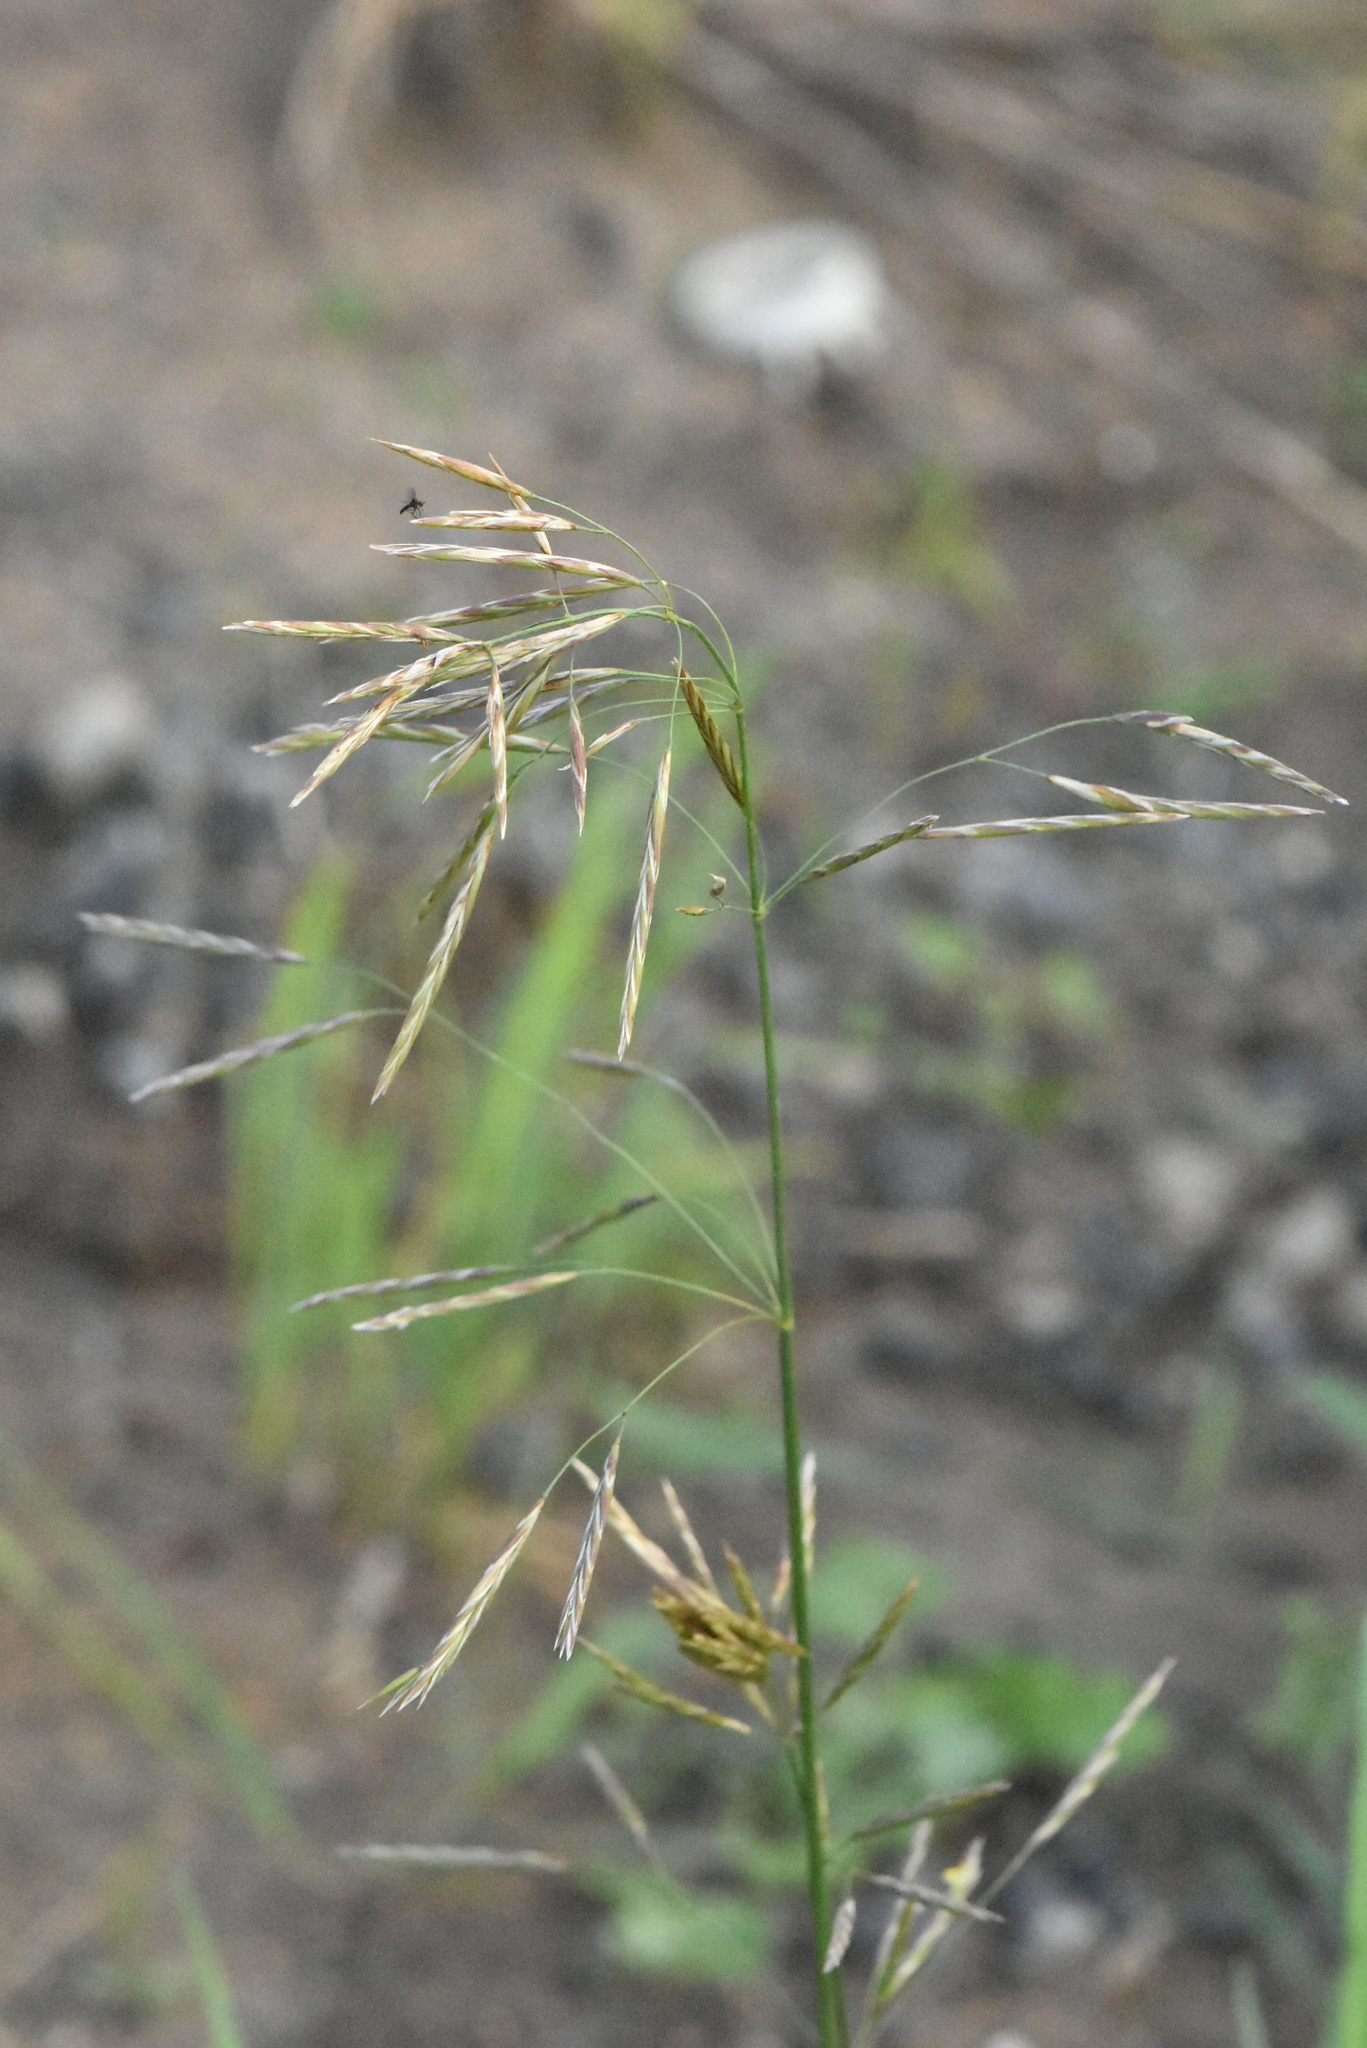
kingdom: Plantae
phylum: Tracheophyta
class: Liliopsida
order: Poales
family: Poaceae
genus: Bromus
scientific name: Bromus inermis
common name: Smooth brome
